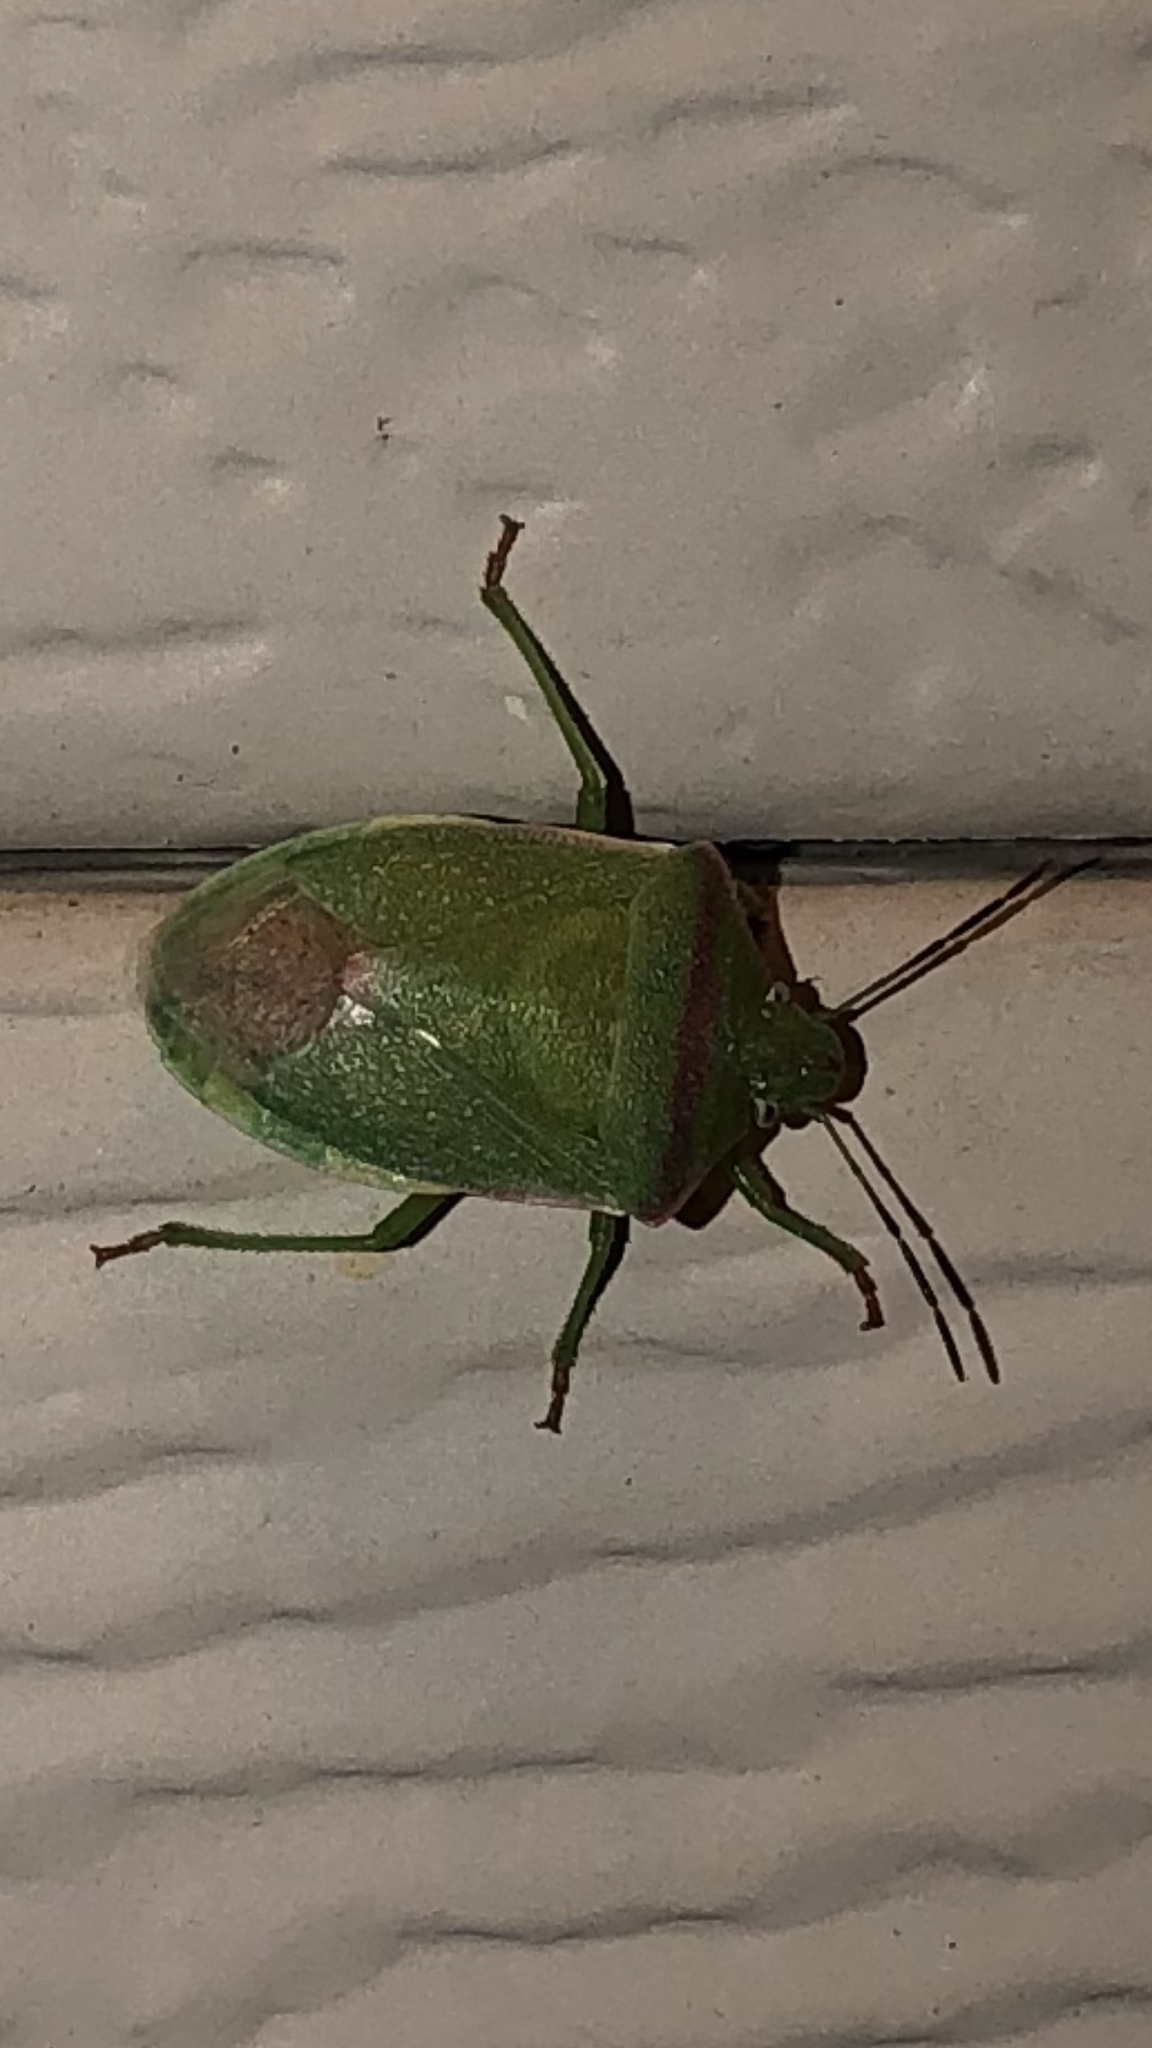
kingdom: Animalia
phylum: Arthropoda
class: Insecta
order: Hemiptera
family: Pentatomidae
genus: Thyanta
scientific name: Thyanta accerra
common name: Stink bug
